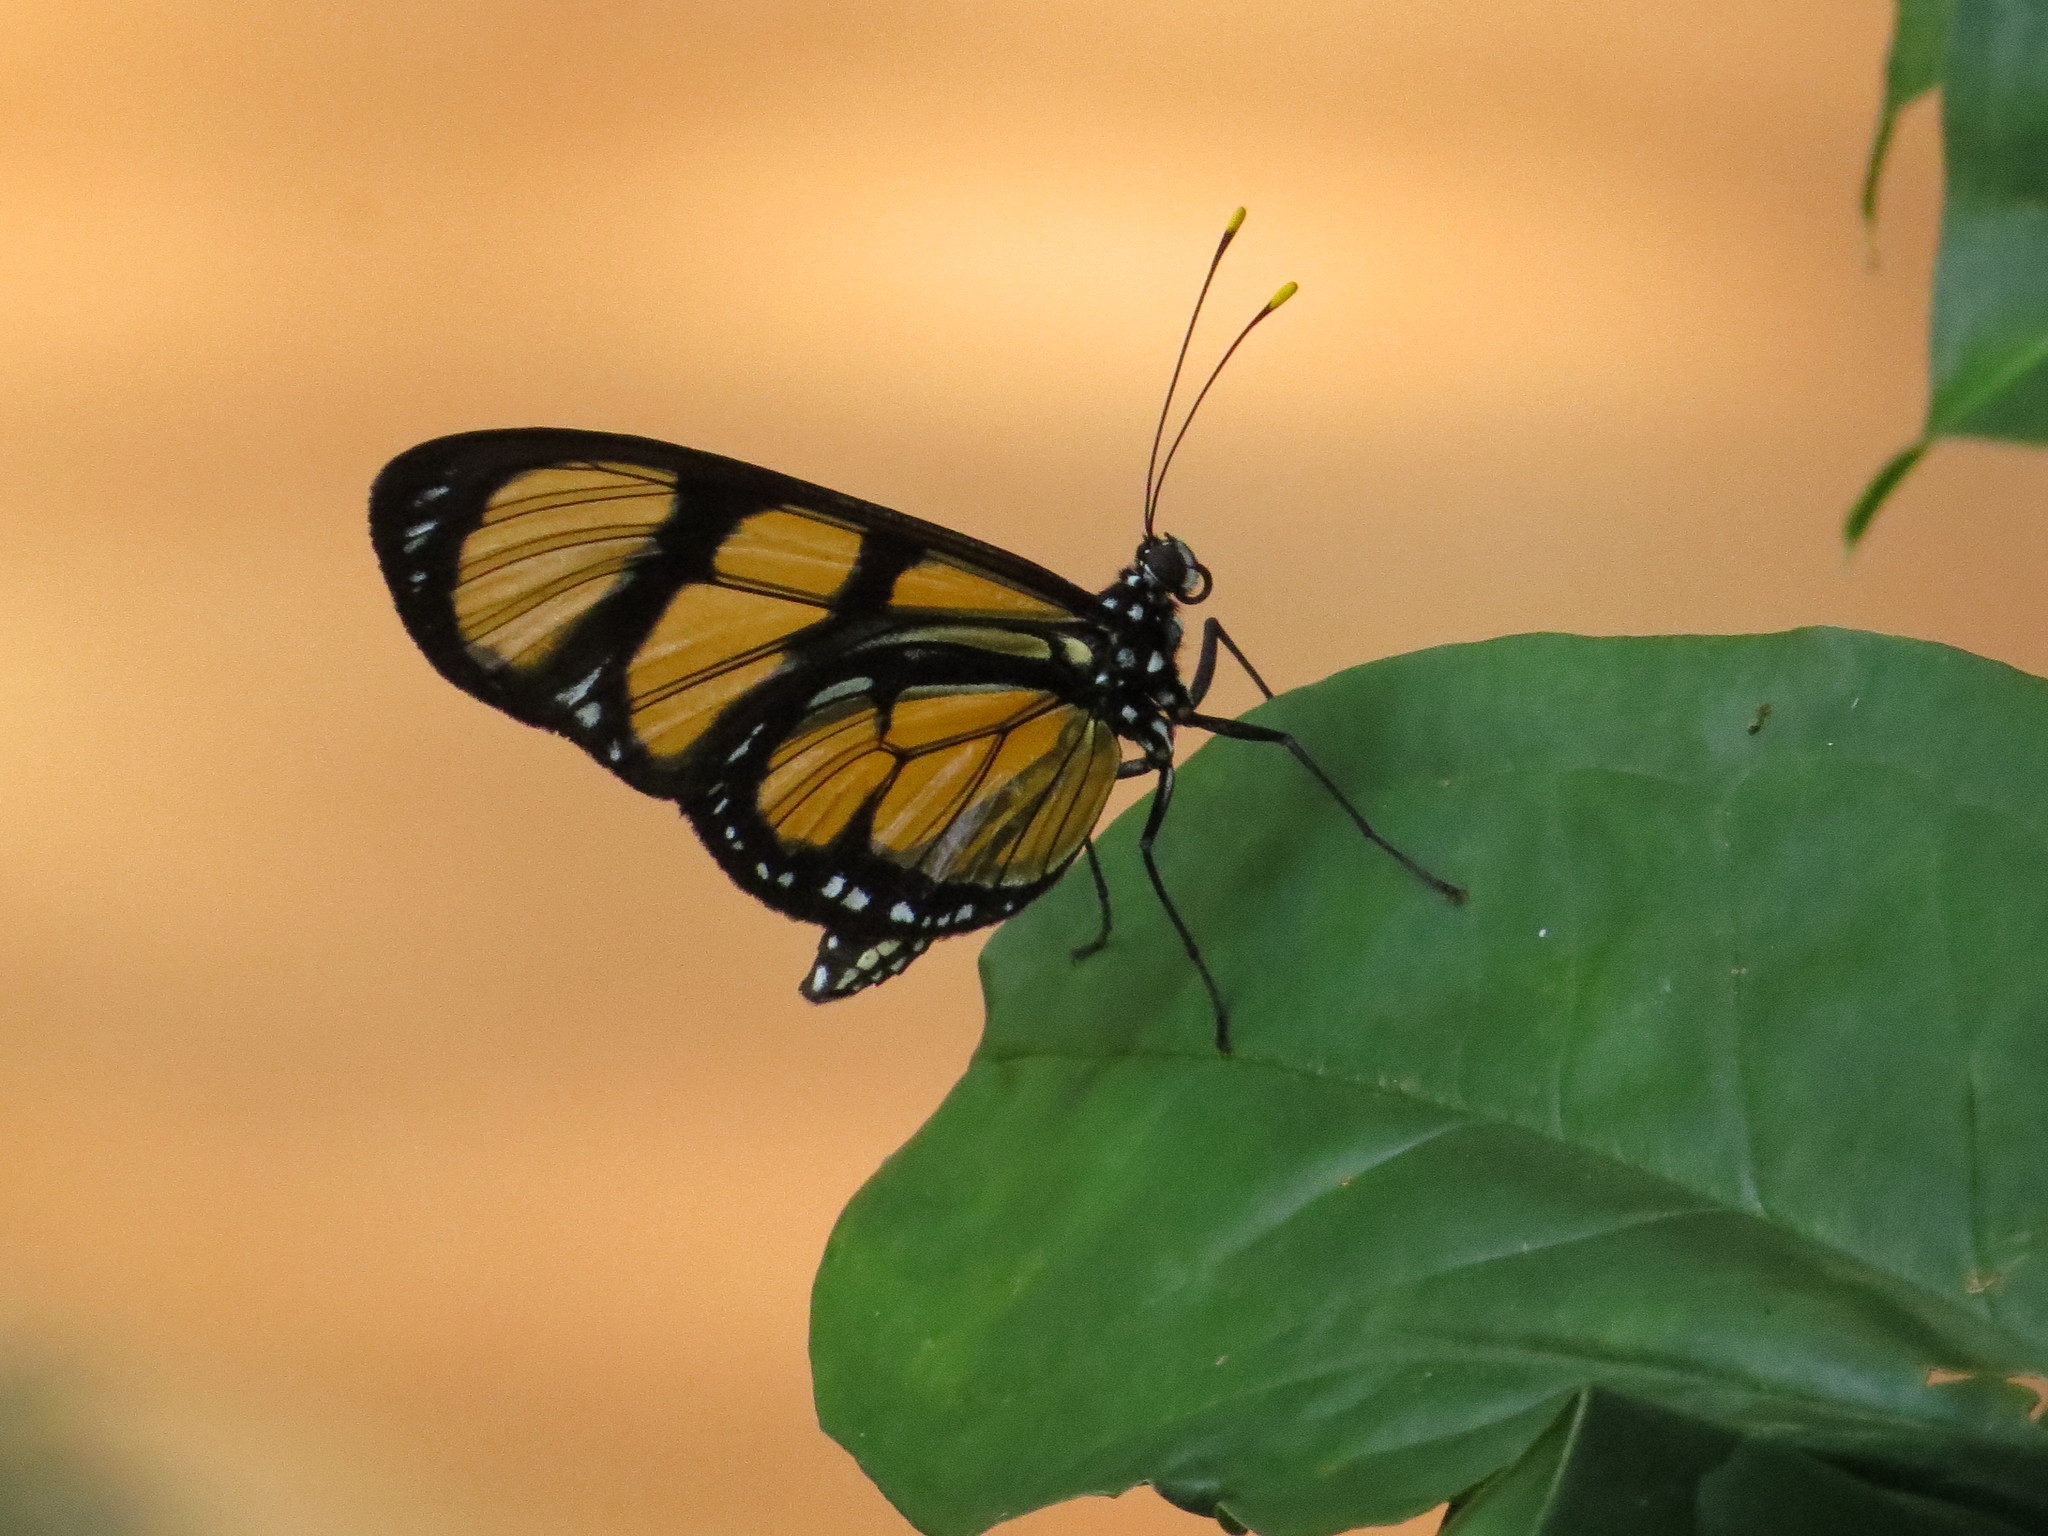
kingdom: Animalia
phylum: Arthropoda
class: Insecta
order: Lepidoptera
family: Nymphalidae
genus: Methona
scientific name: Methona themisto
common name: Themisto amberwing
